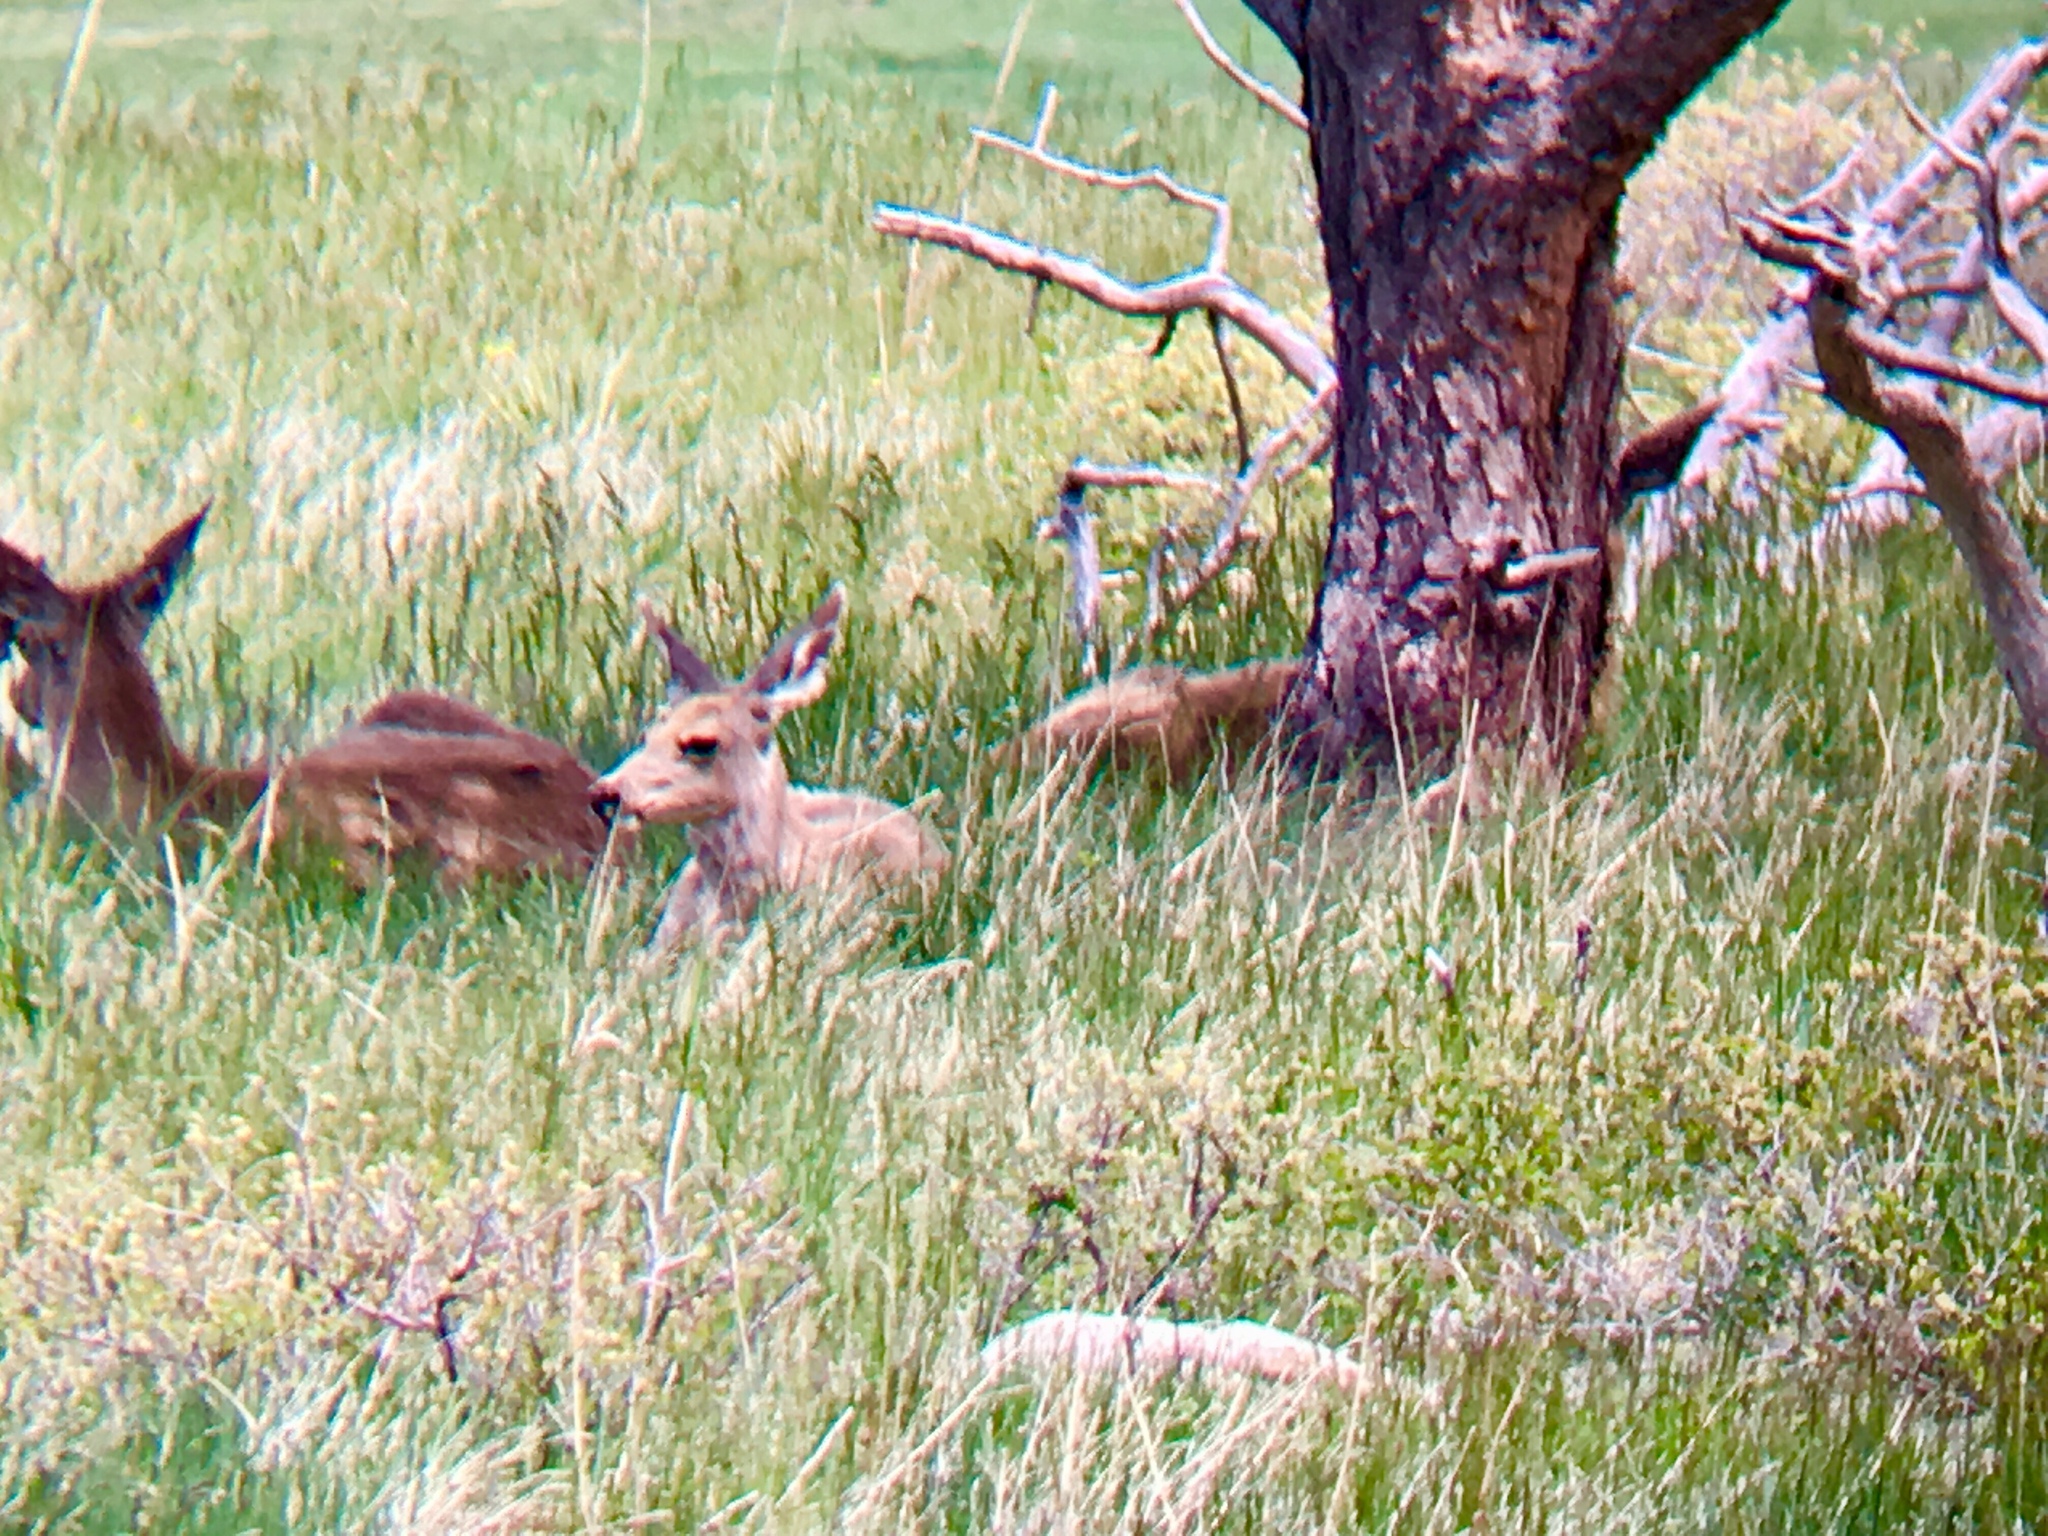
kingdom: Animalia
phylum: Chordata
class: Mammalia
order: Artiodactyla
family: Cervidae
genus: Odocoileus
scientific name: Odocoileus hemionus
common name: Mule deer
